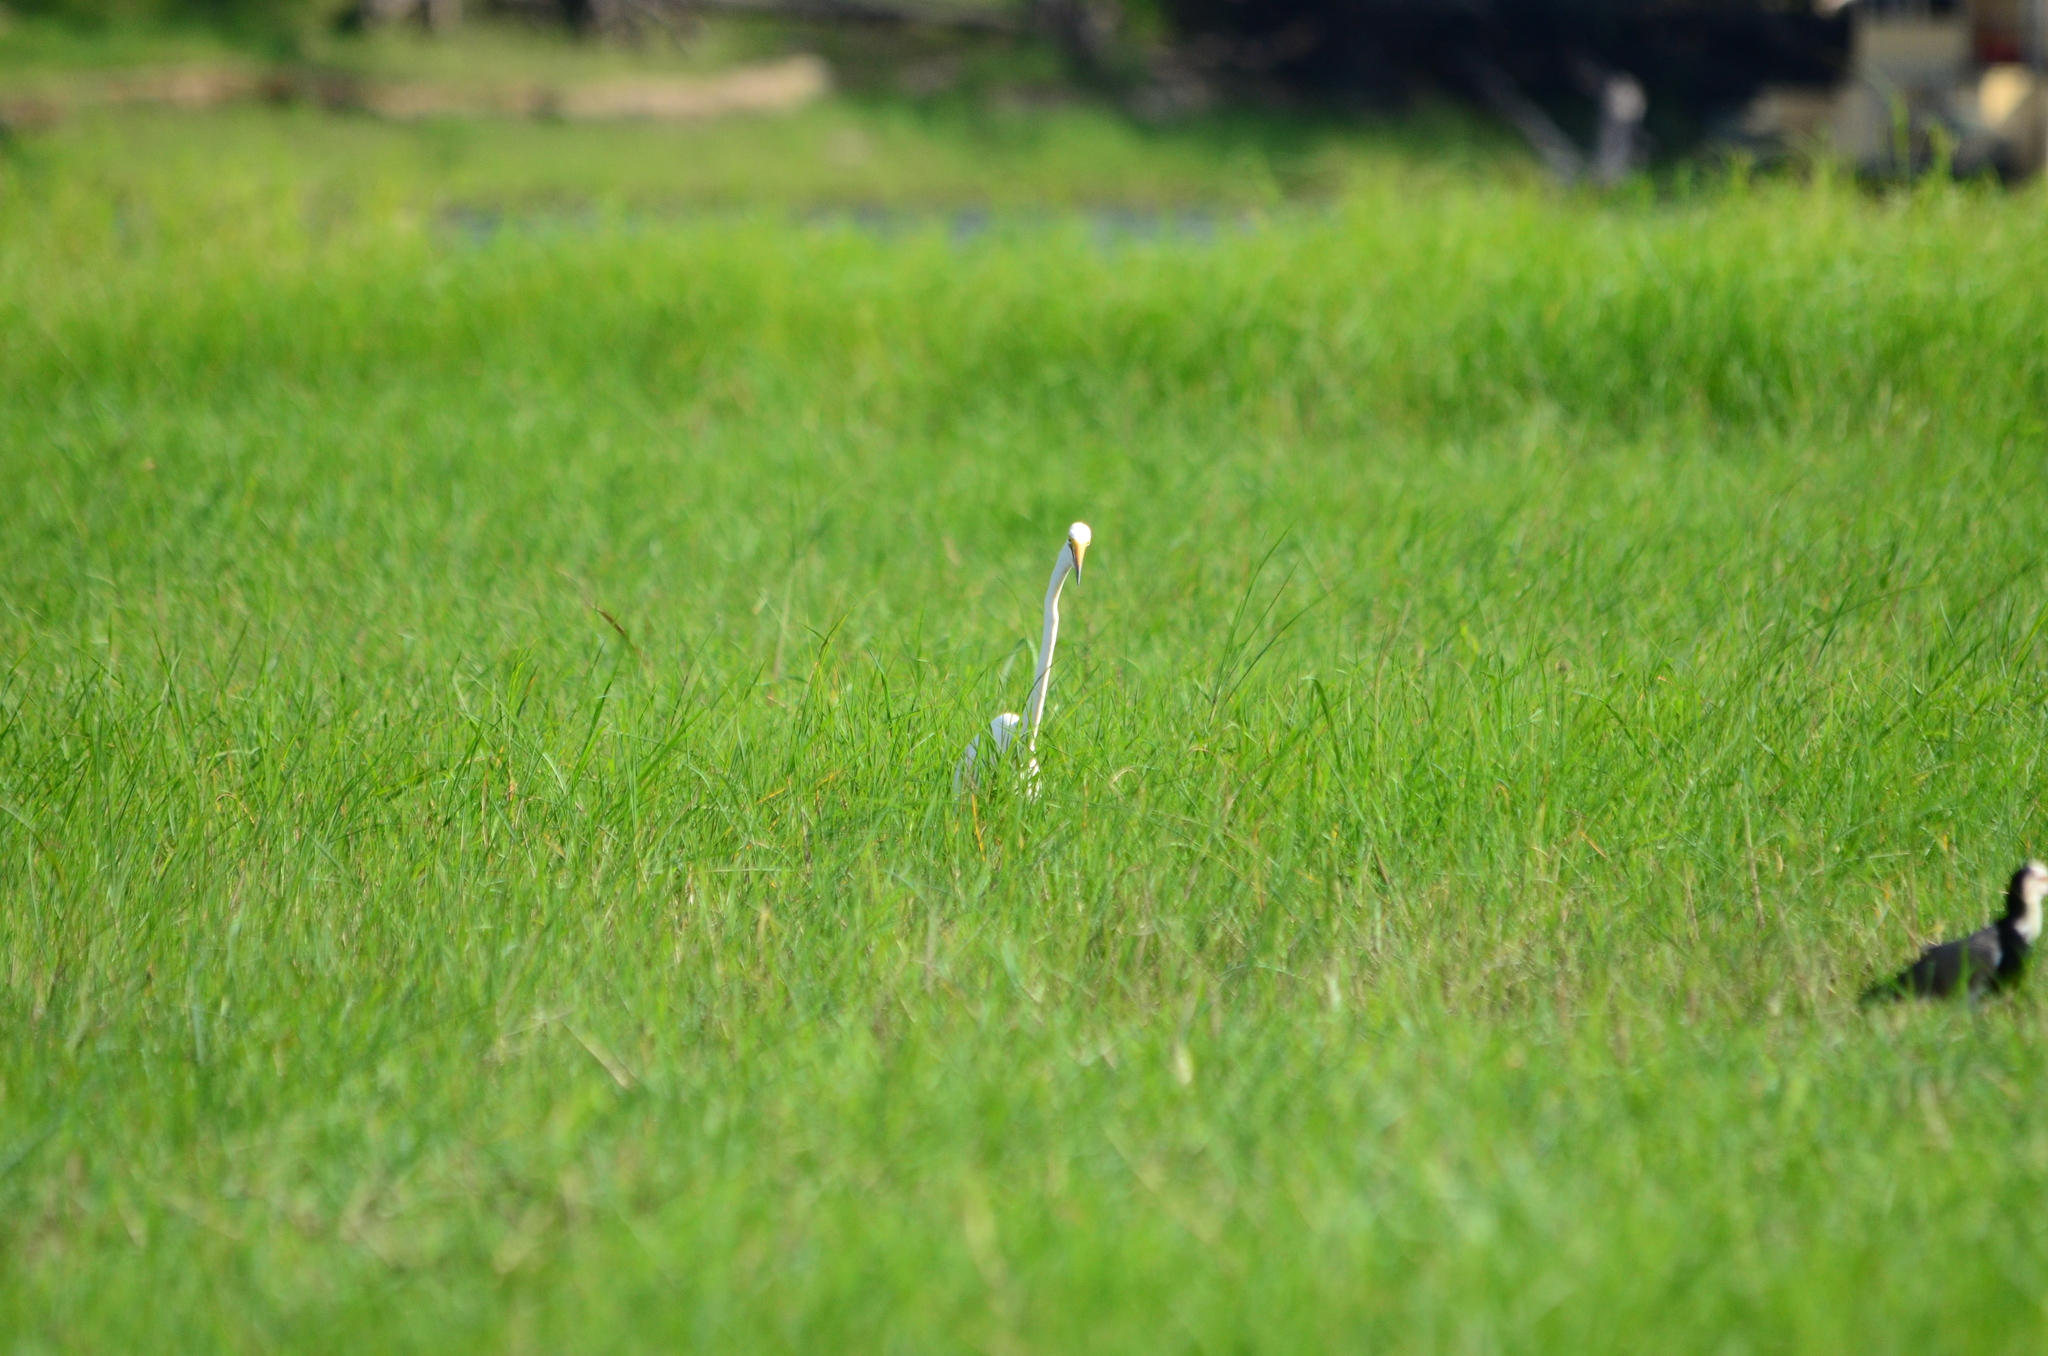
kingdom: Animalia
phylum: Chordata
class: Aves
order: Pelecaniformes
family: Ardeidae
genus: Ardea
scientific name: Ardea alba
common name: Great egret
